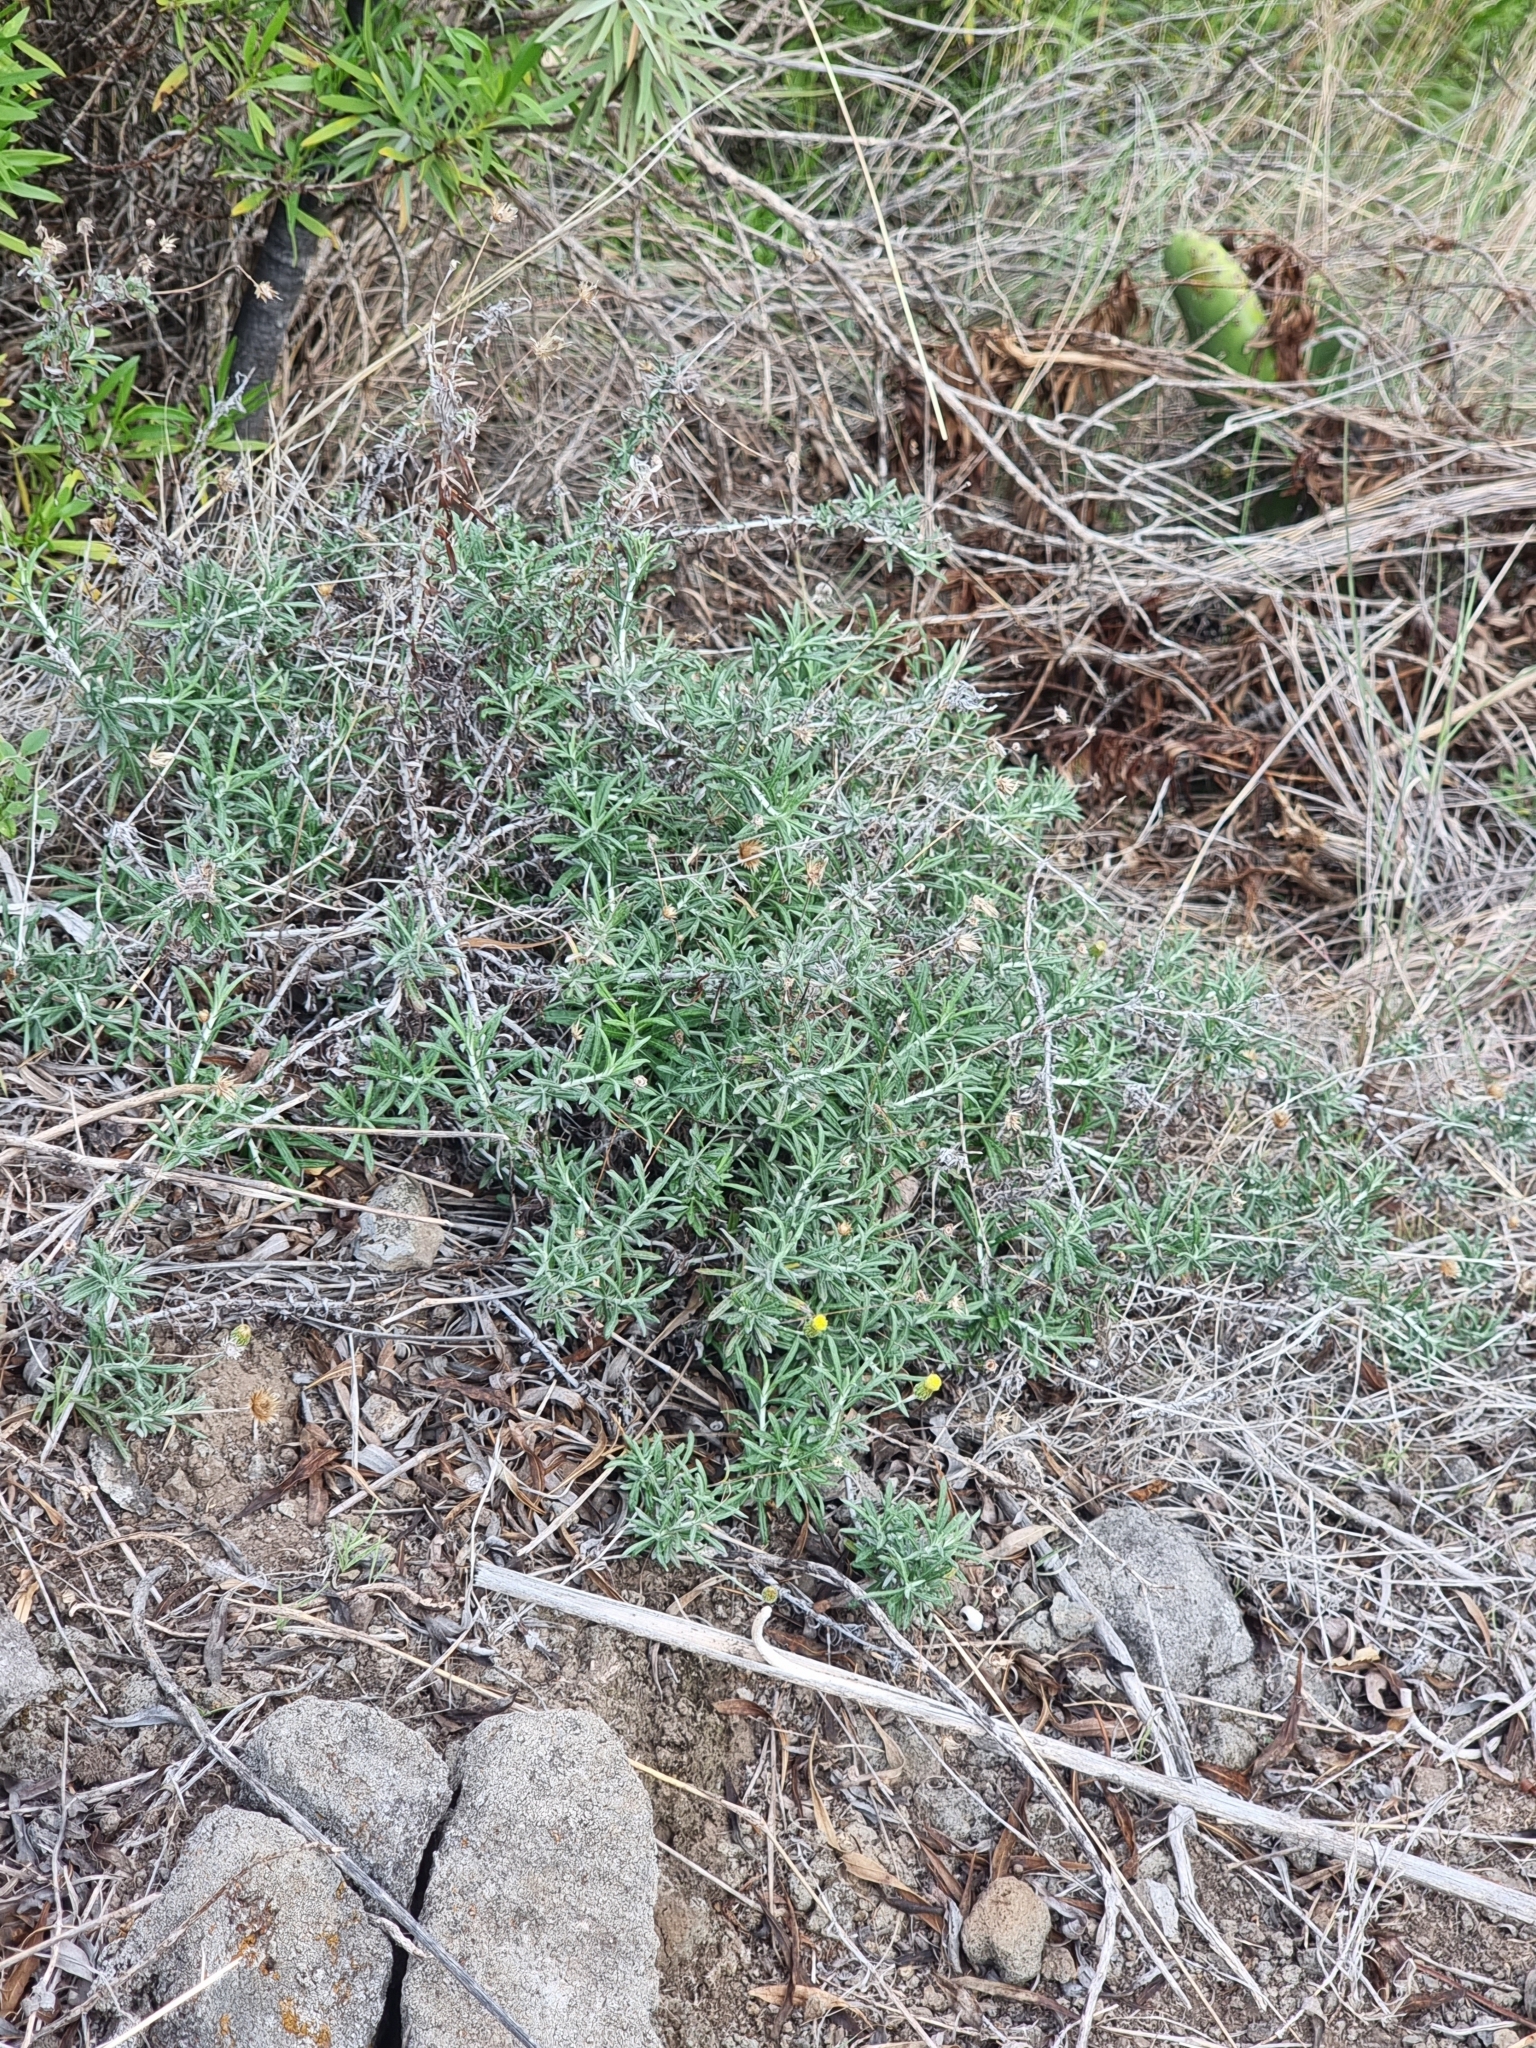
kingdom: Plantae
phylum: Tracheophyta
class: Magnoliopsida
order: Asterales
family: Asteraceae
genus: Phagnalon
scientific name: Phagnalon saxatile
